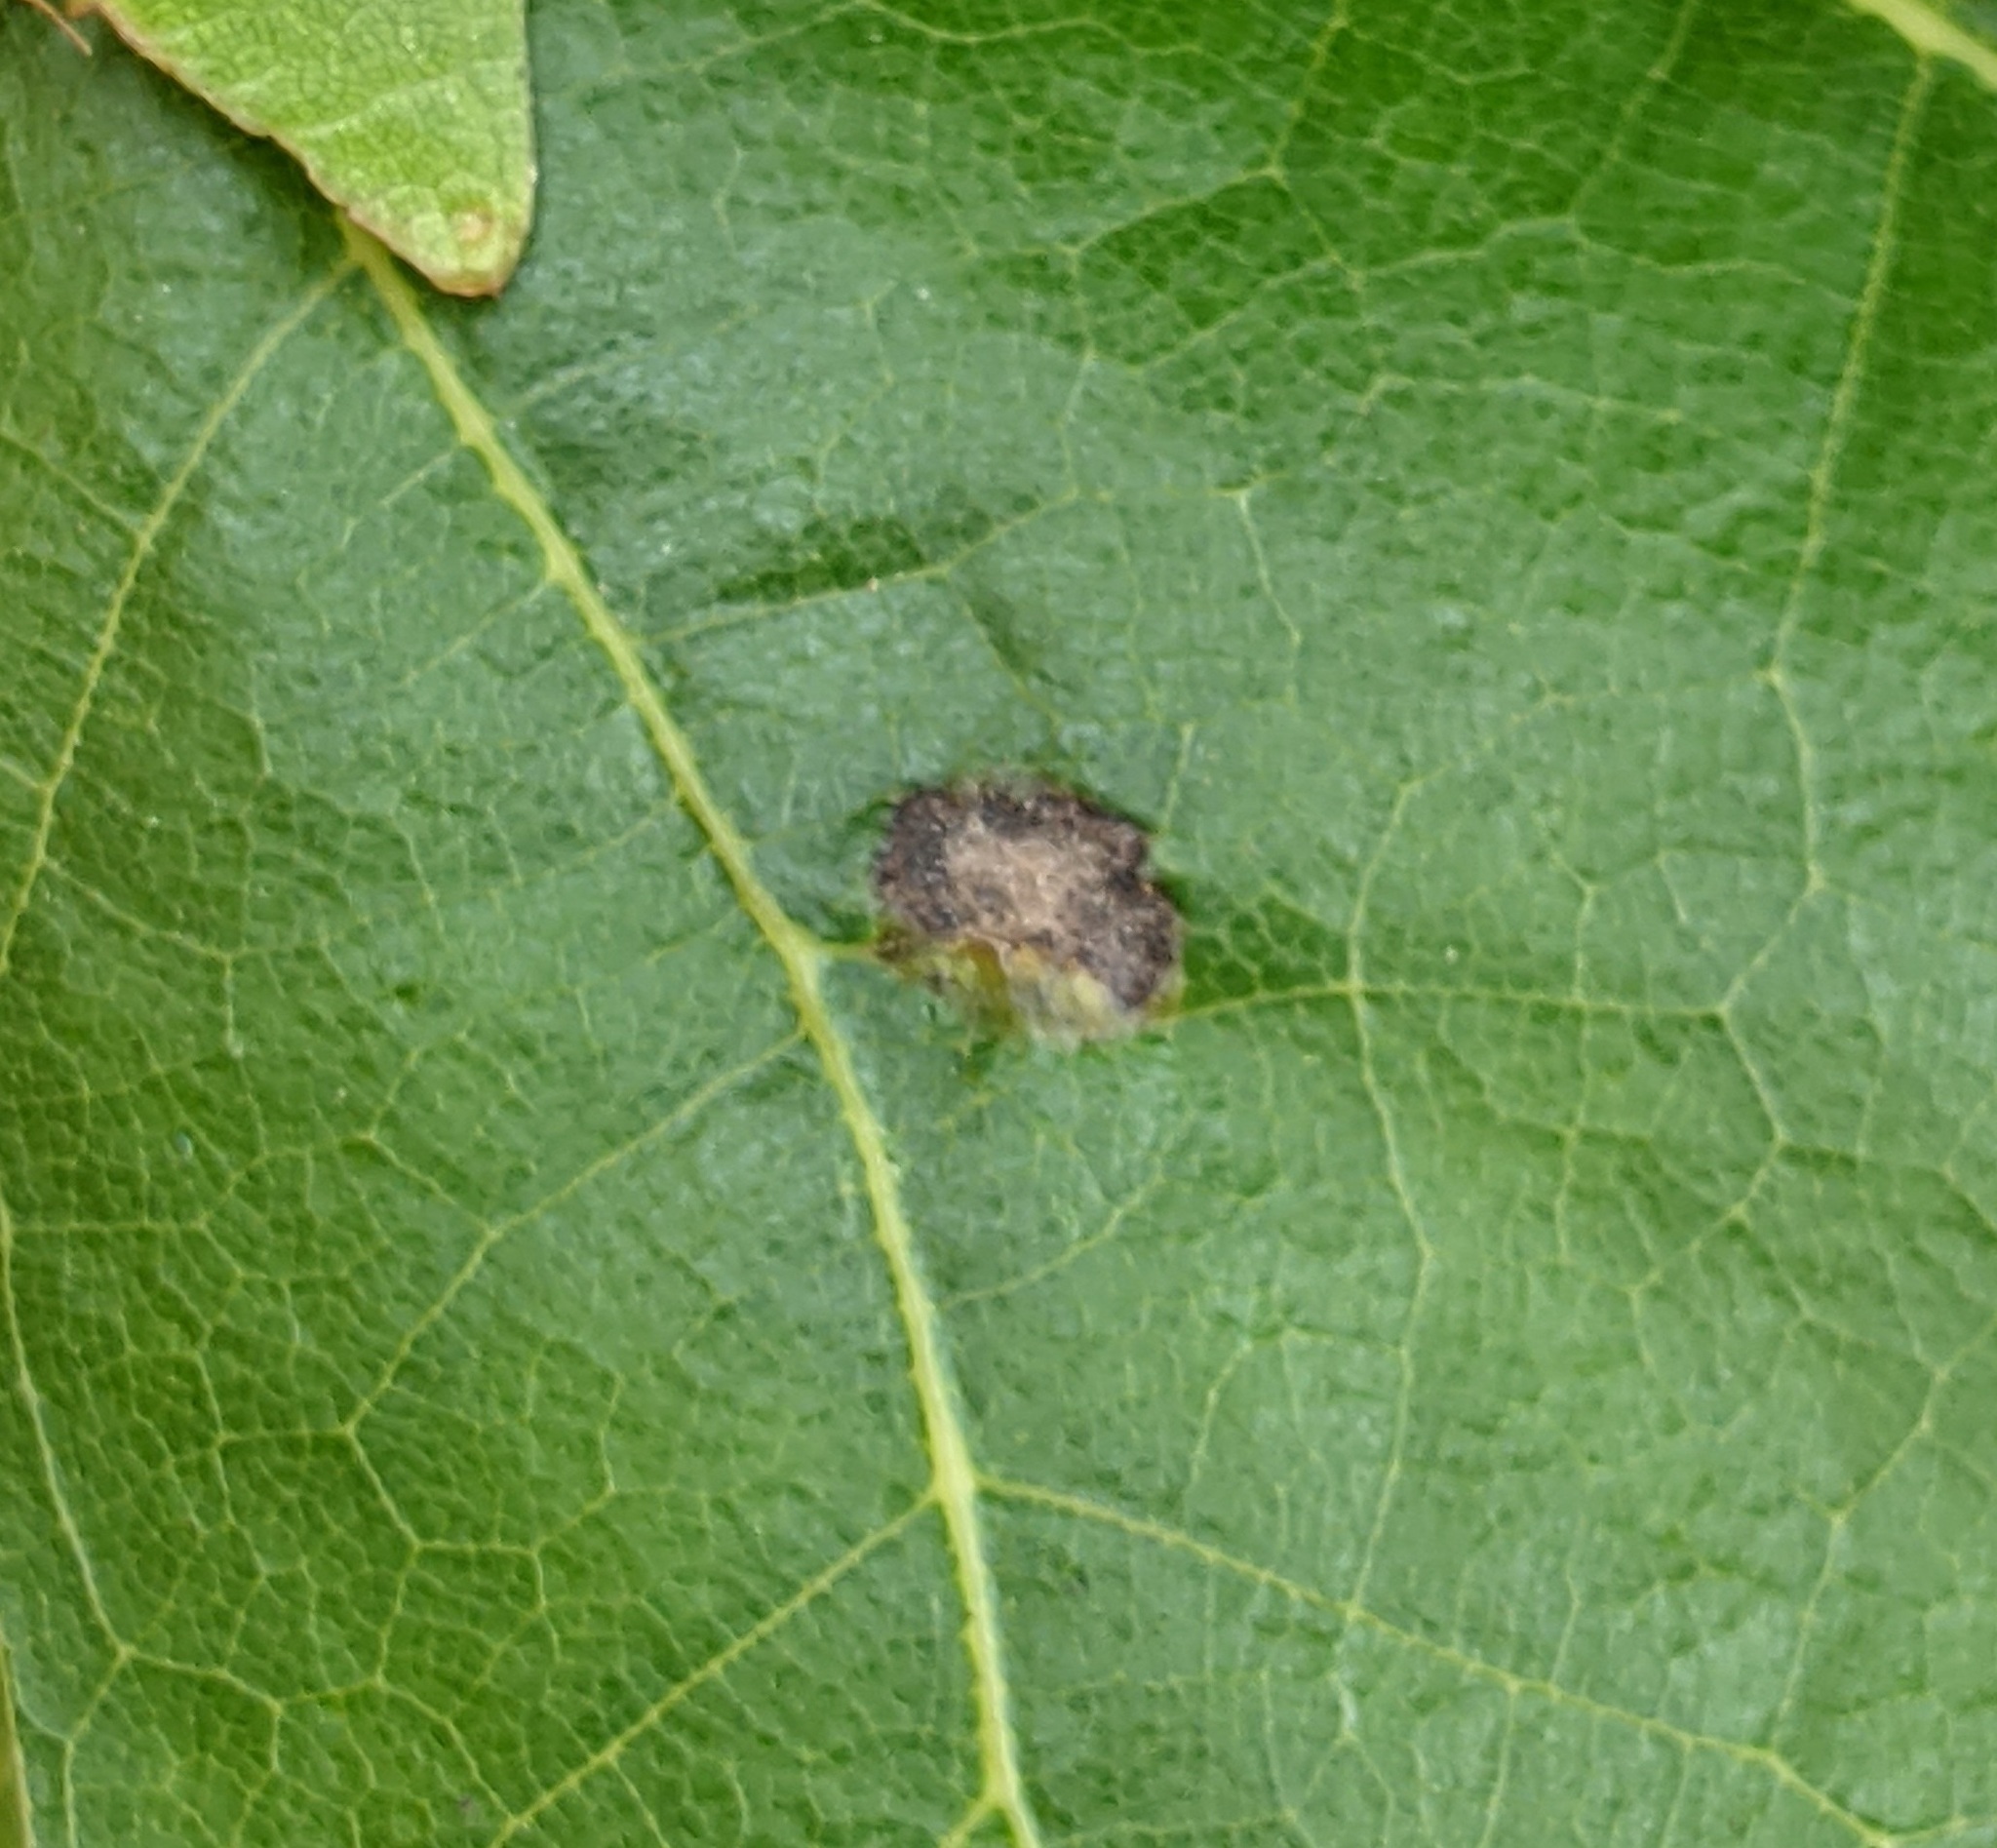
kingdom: Animalia
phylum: Arthropoda
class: Insecta
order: Hymenoptera
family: Cynipidae
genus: Dryocosmus
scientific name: Dryocosmus
